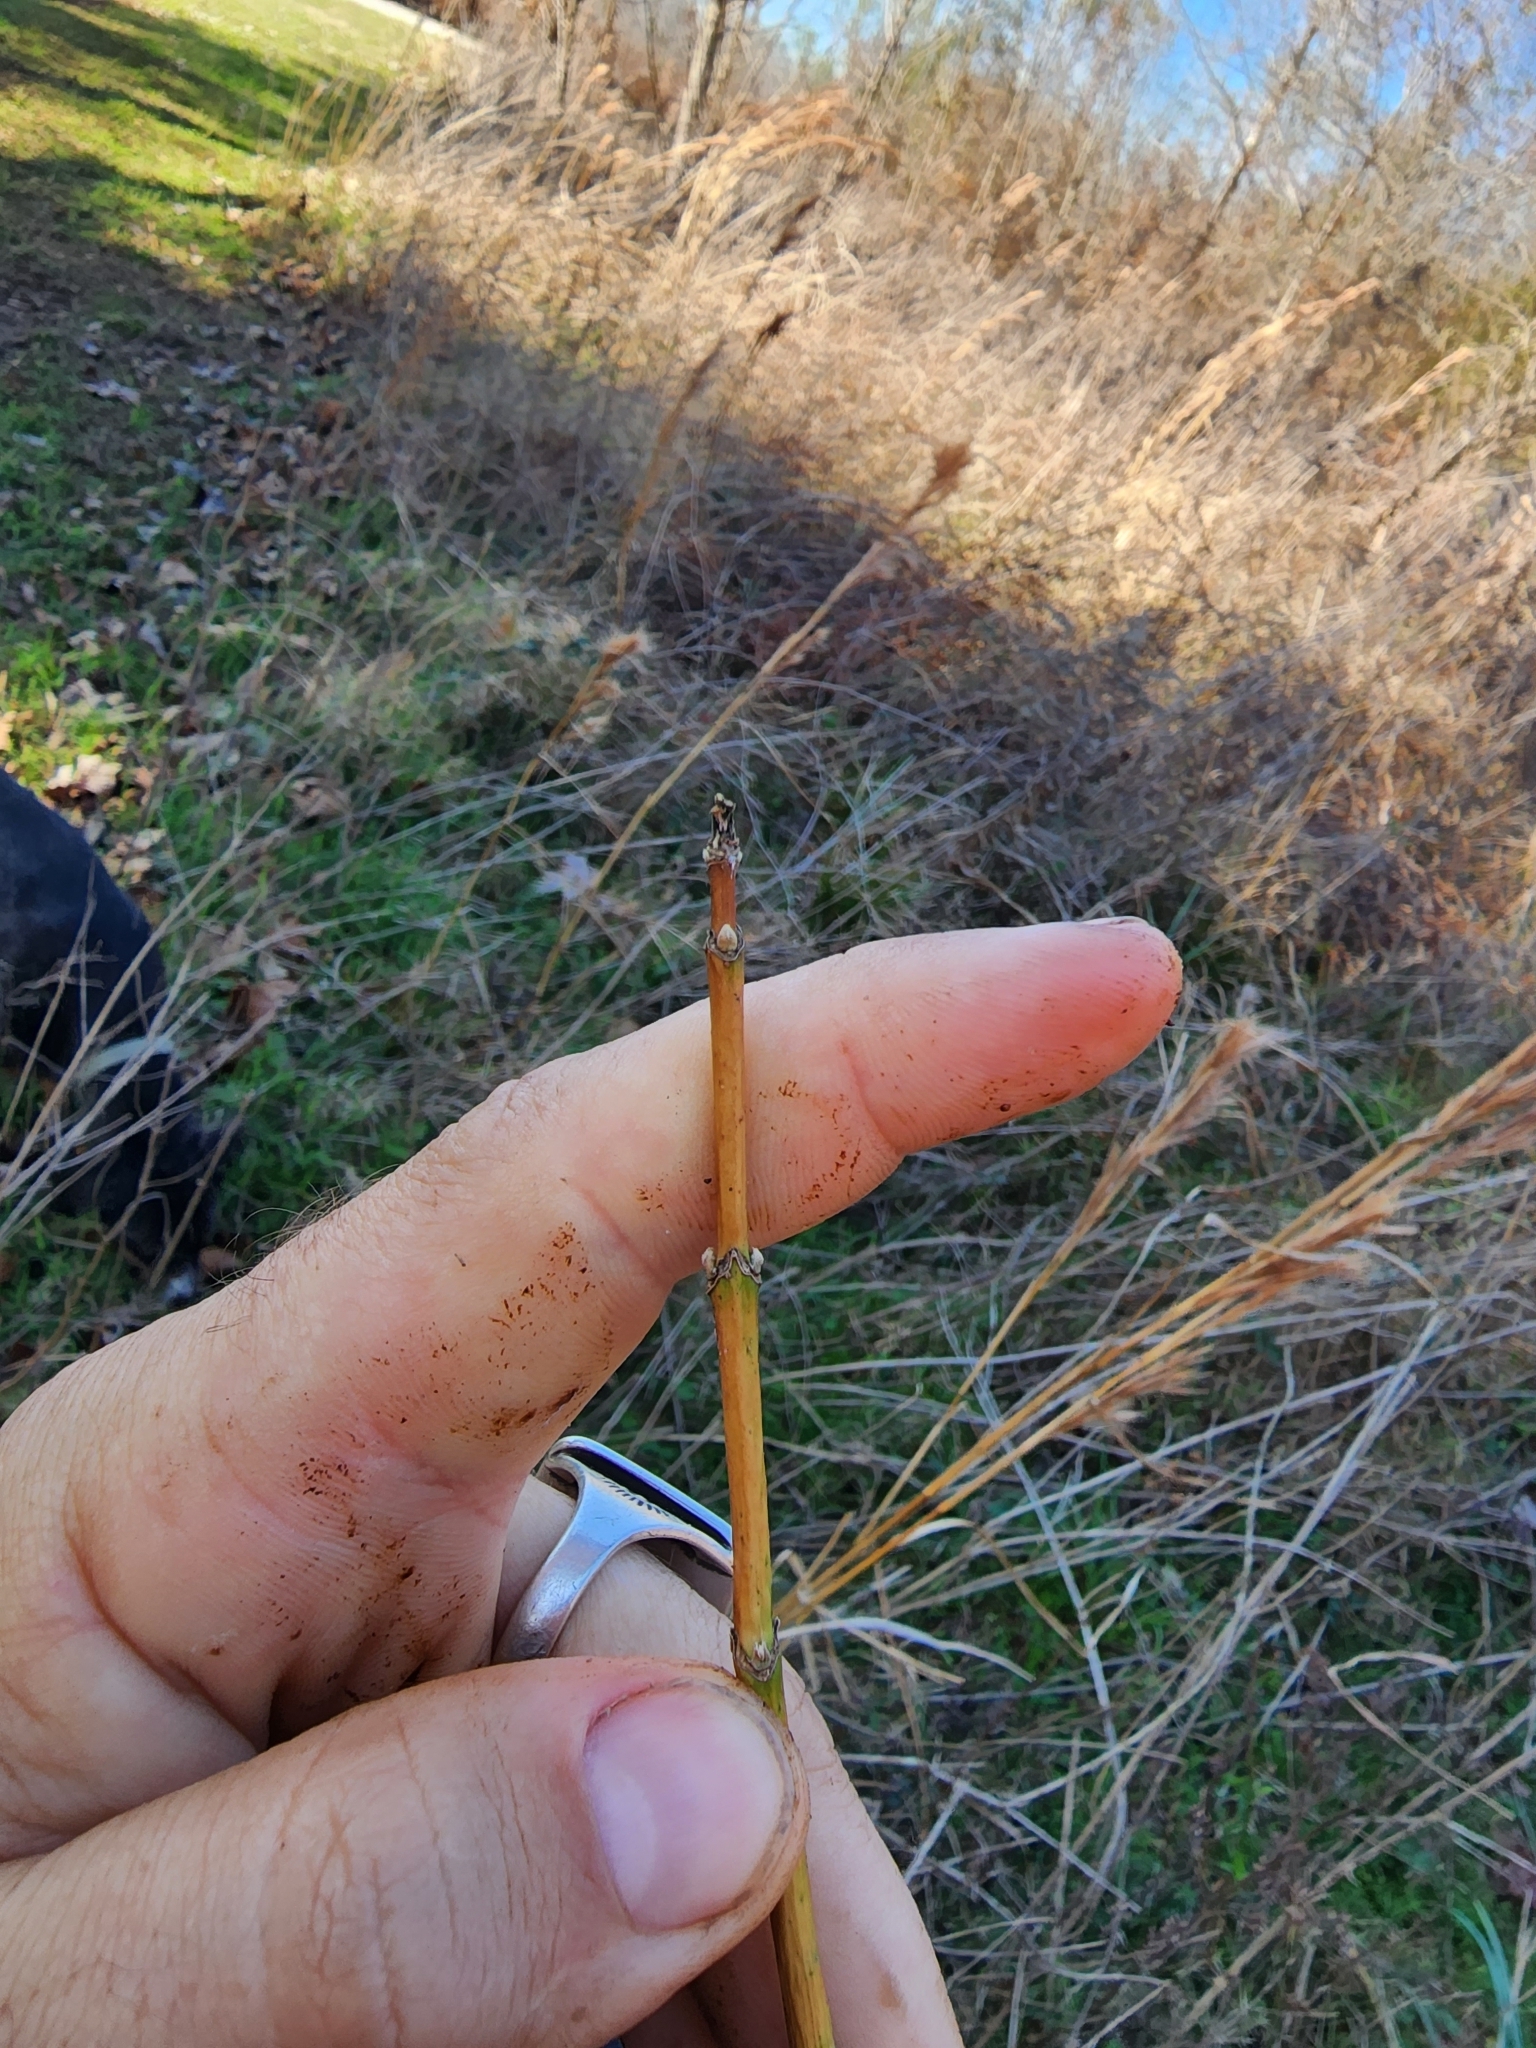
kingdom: Plantae
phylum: Tracheophyta
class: Magnoliopsida
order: Sapindales
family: Sapindaceae
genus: Acer
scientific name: Acer negundo
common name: Ashleaf maple
